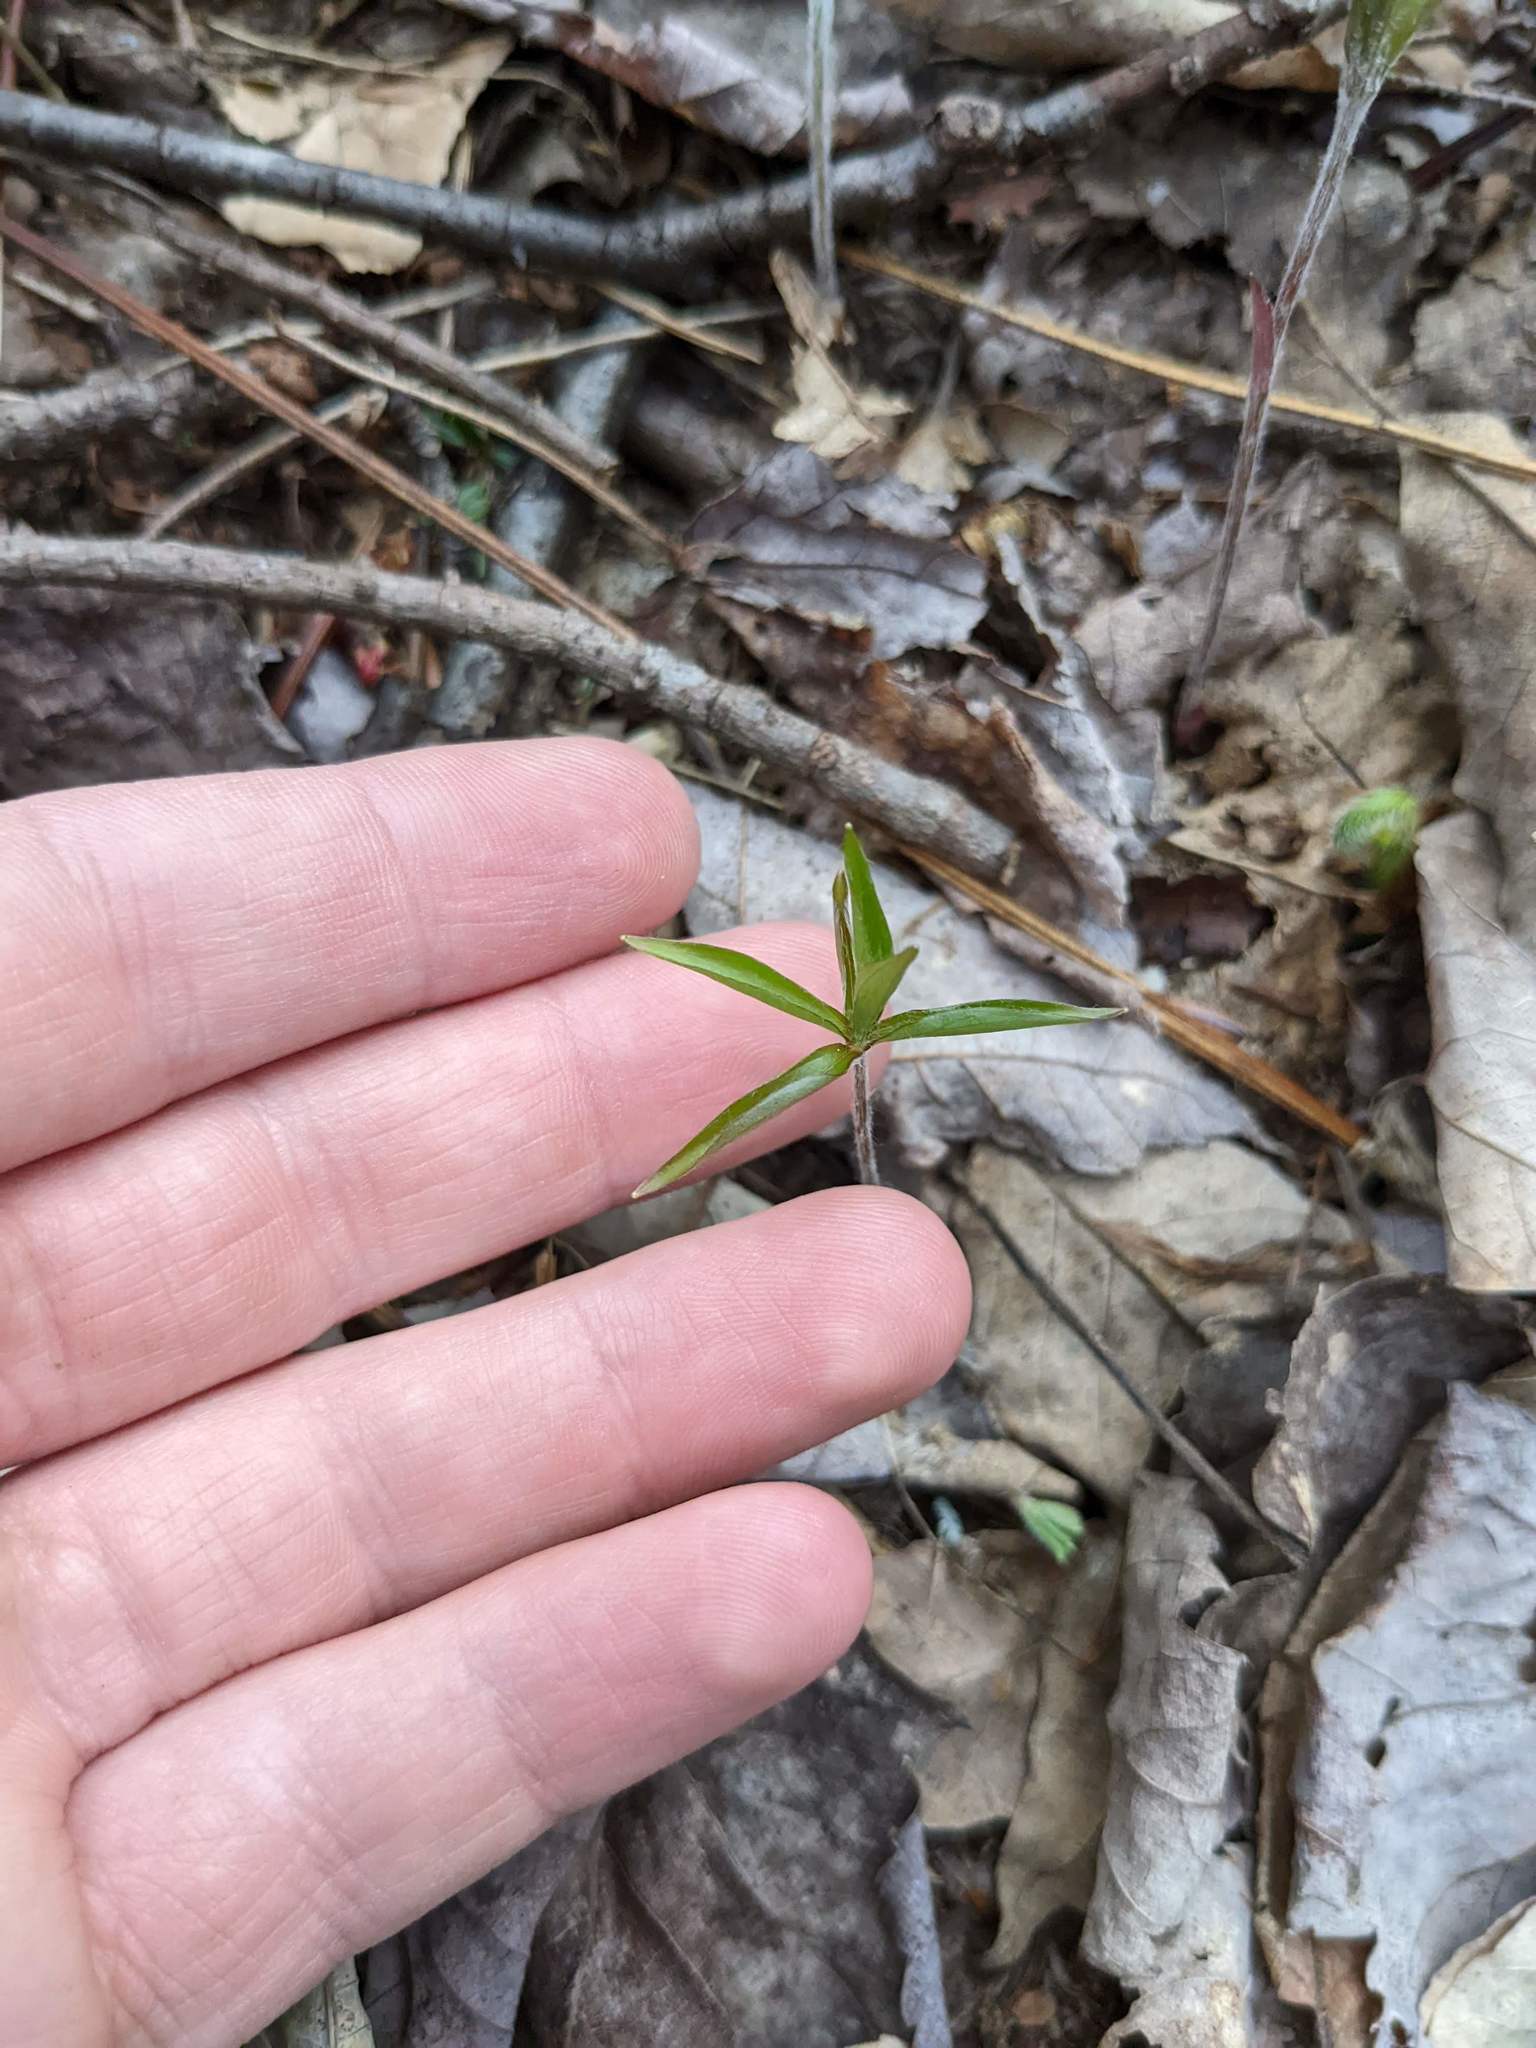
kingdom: Plantae
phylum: Tracheophyta
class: Magnoliopsida
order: Ericales
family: Primulaceae
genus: Lysimachia
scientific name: Lysimachia borealis
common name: American starflower
